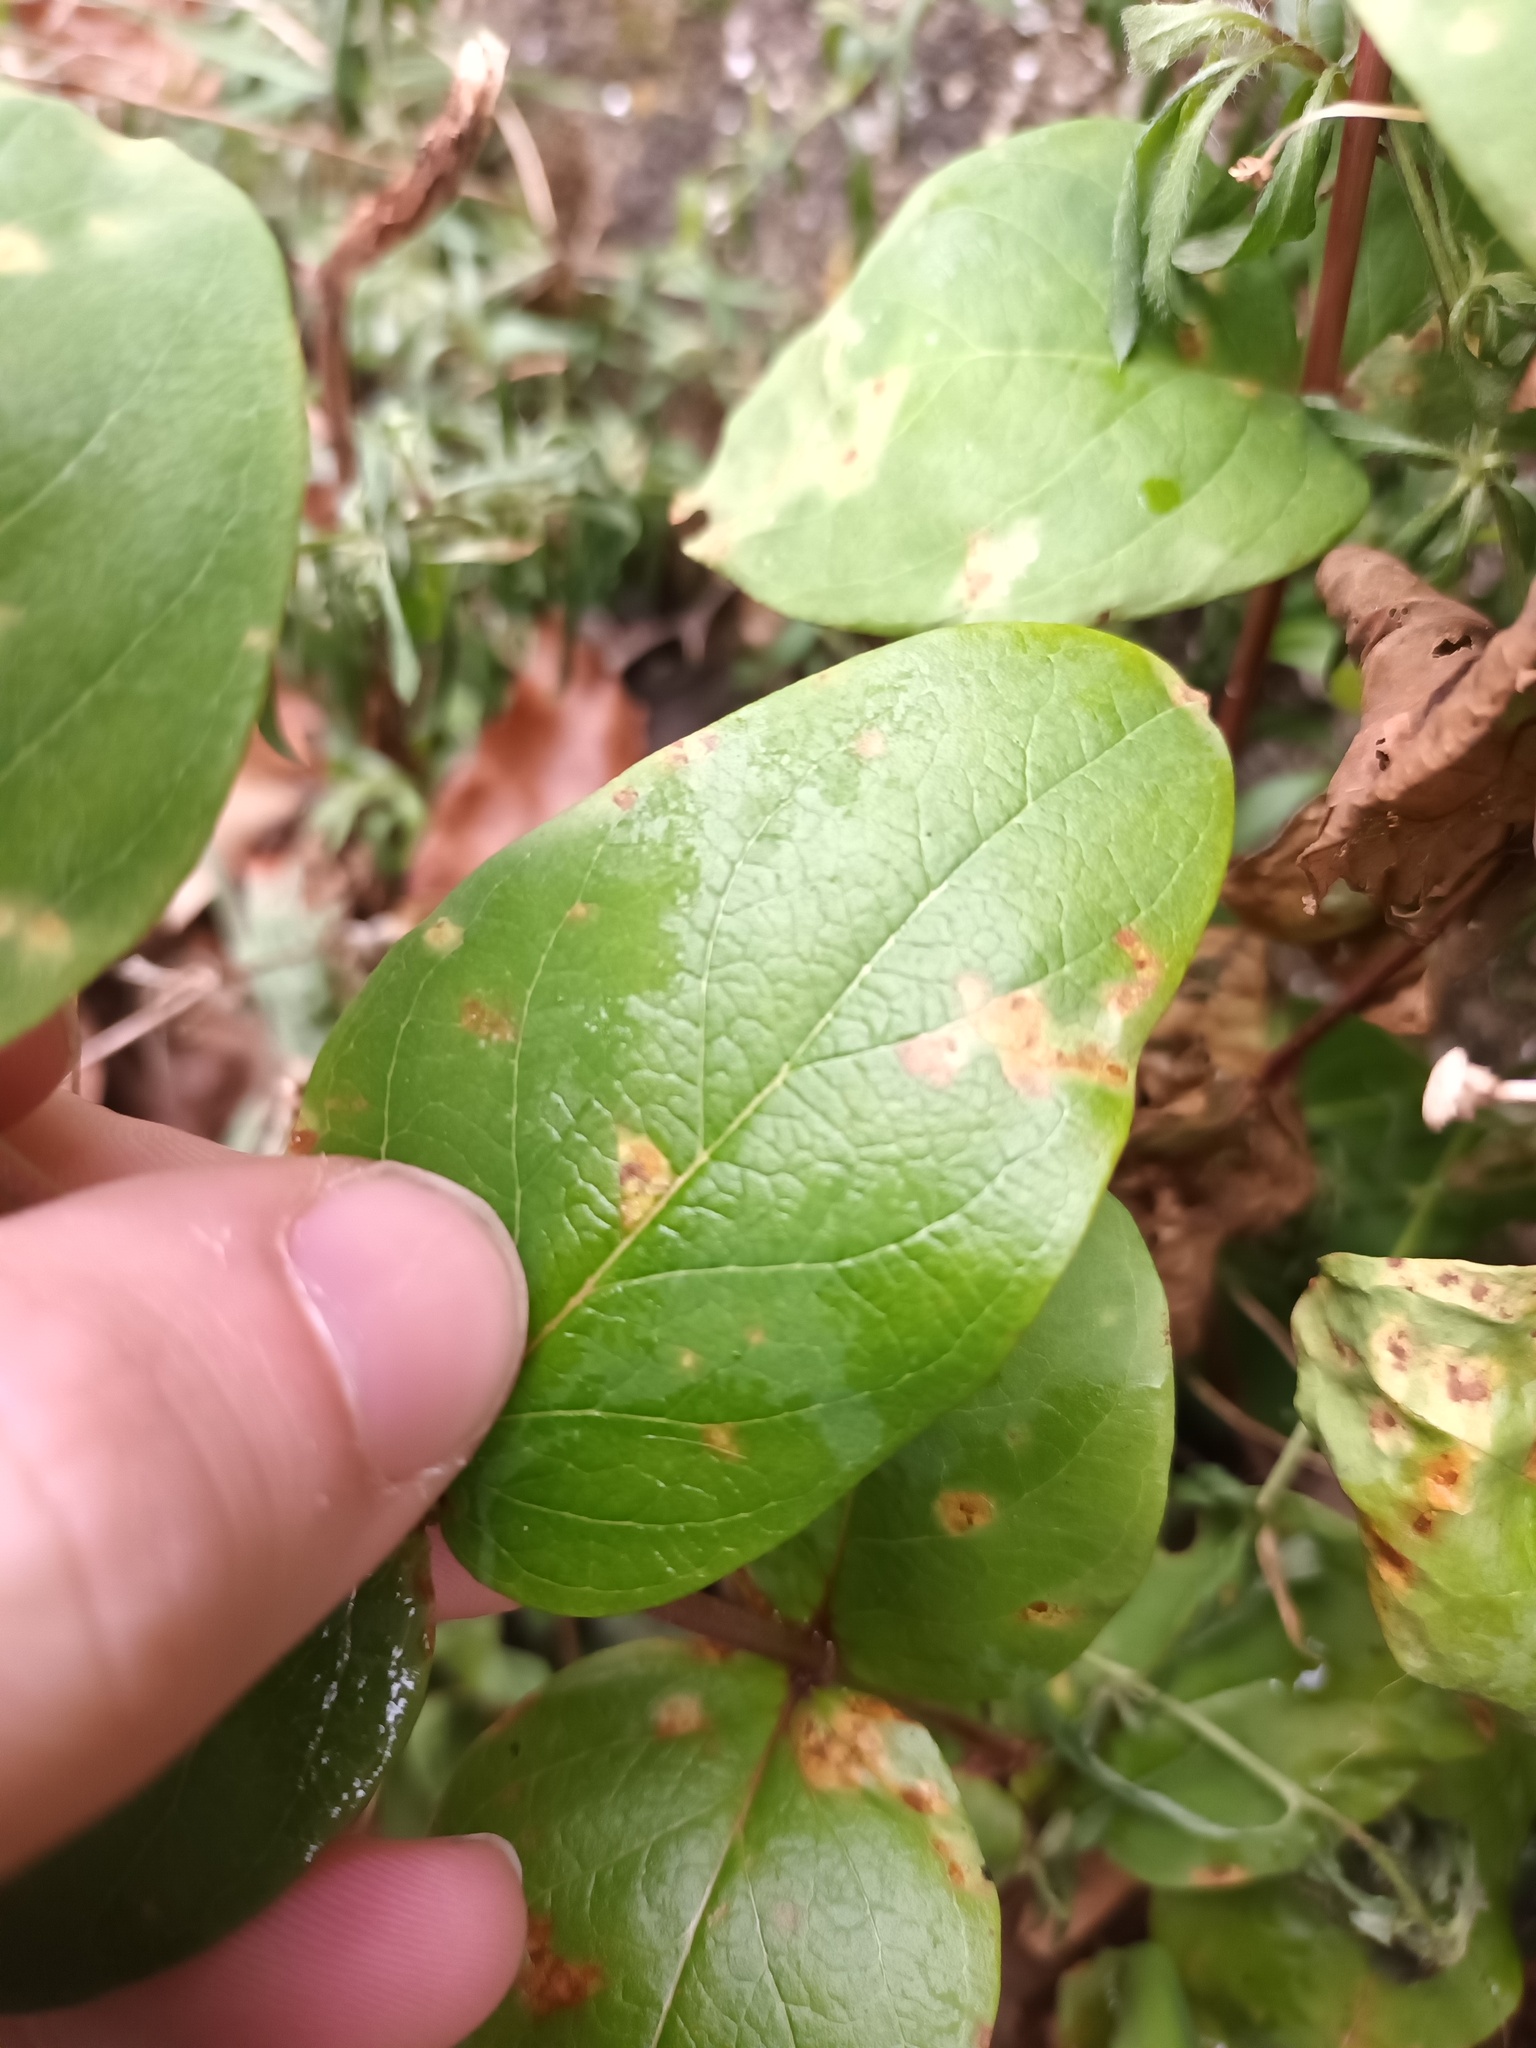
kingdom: Fungi
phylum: Basidiomycota
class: Pucciniomycetes
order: Pucciniales
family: Melampsoraceae
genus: Melampsora
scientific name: Melampsora
